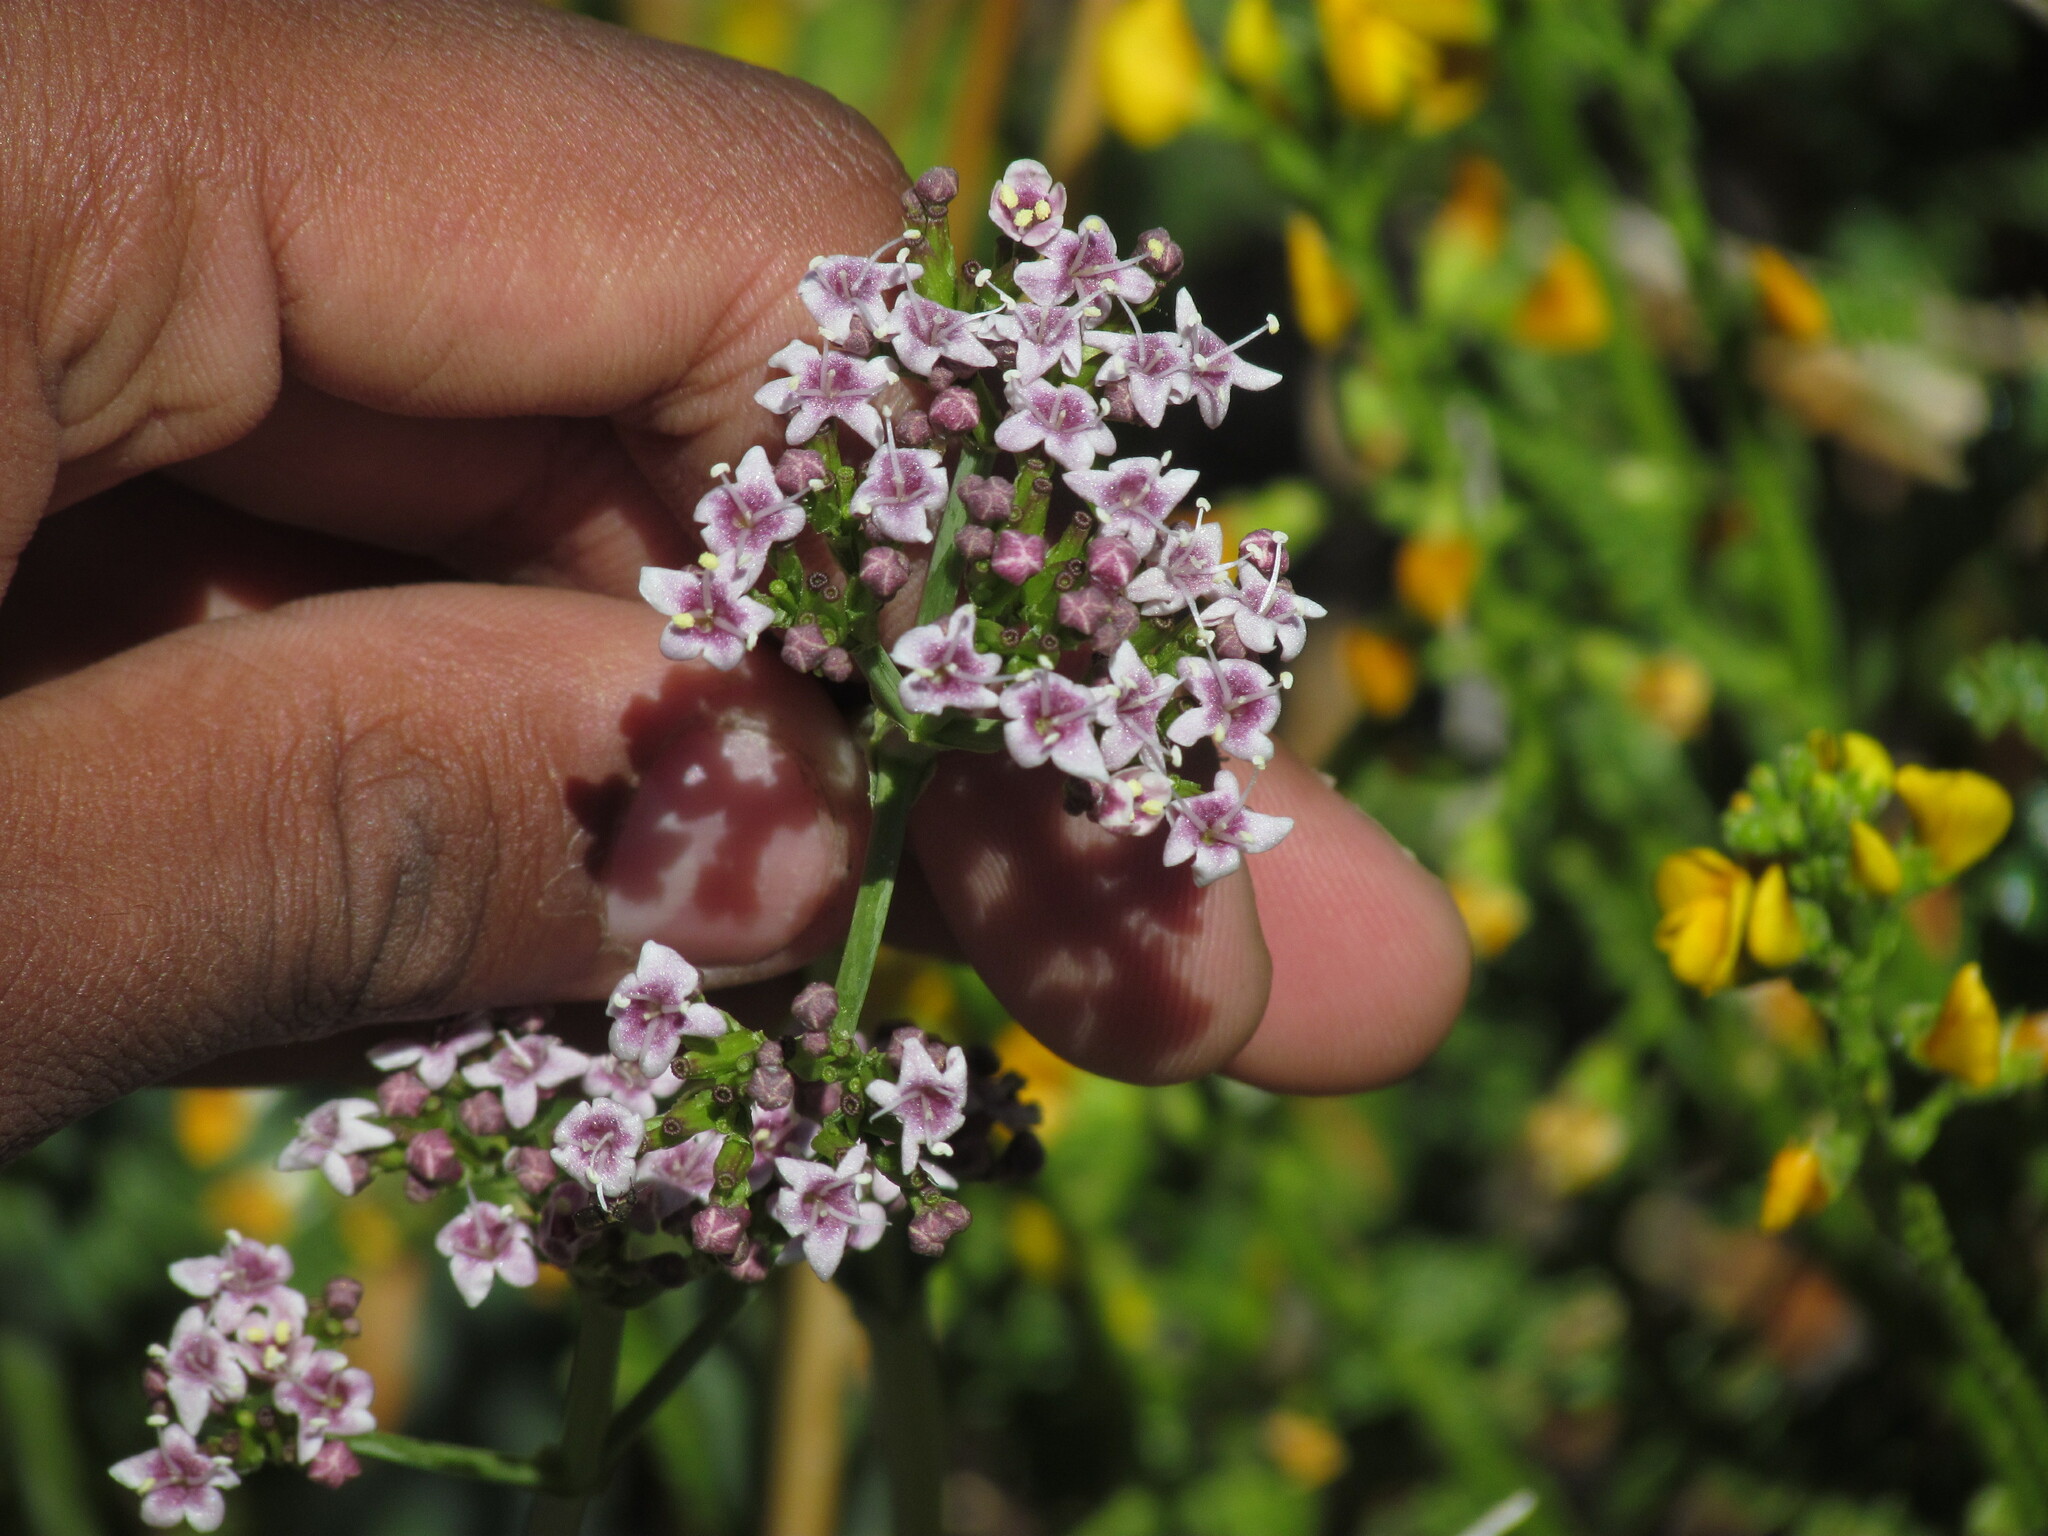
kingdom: Plantae
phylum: Tracheophyta
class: Magnoliopsida
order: Dipsacales
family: Caprifoliaceae
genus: Valeriana
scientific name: Valeriana carnosa
